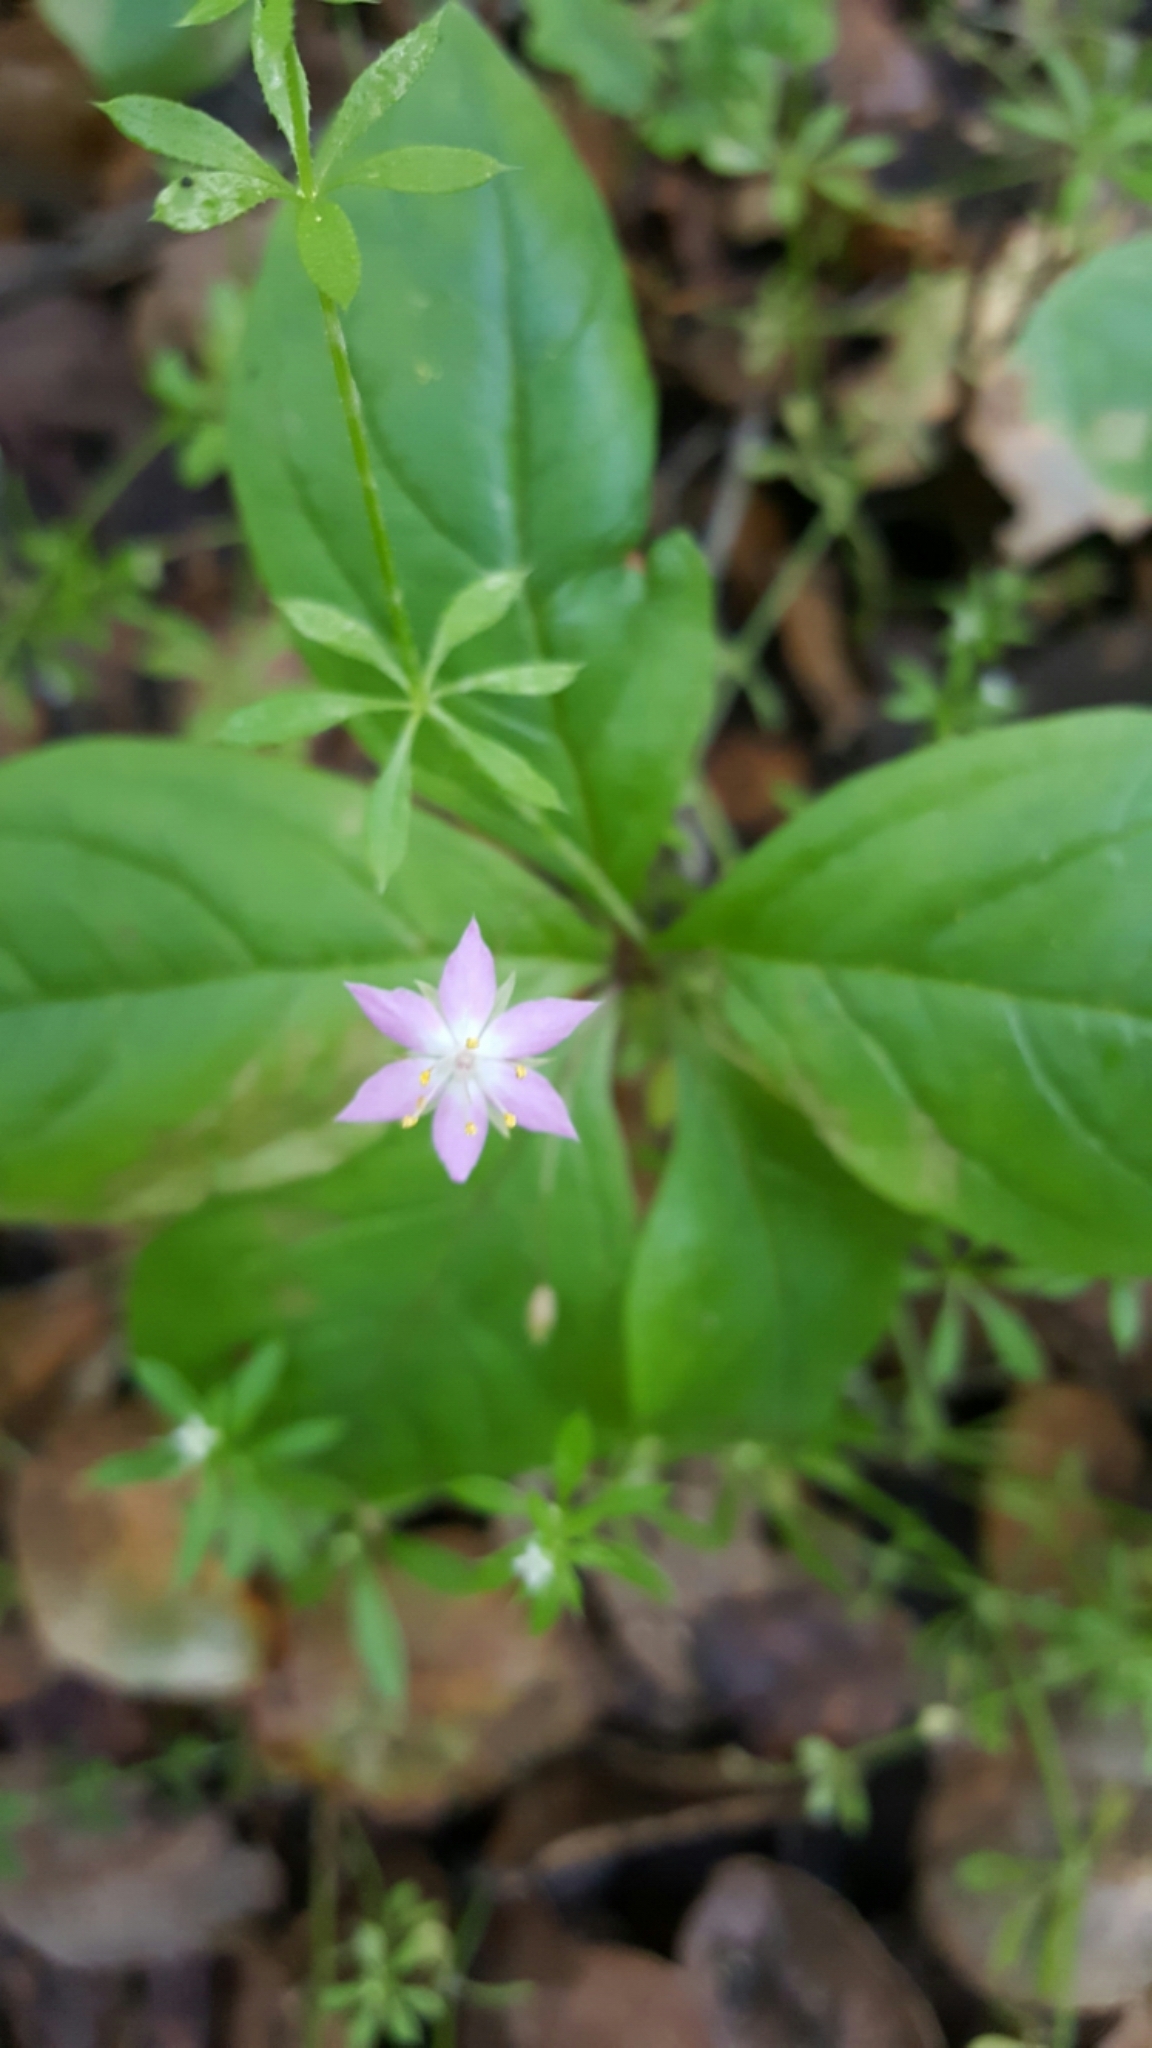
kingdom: Plantae
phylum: Tracheophyta
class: Magnoliopsida
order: Ericales
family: Primulaceae
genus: Lysimachia
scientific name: Lysimachia latifolia
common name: Pacific starflower
